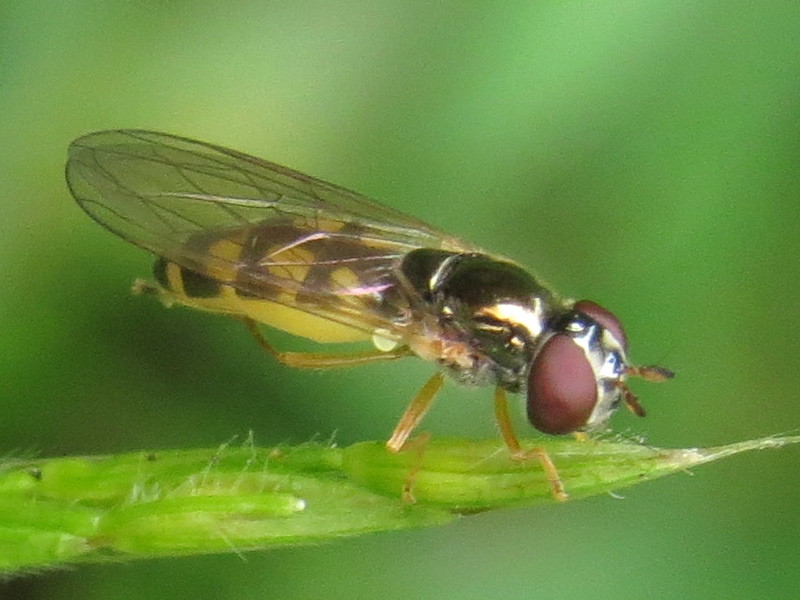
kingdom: Animalia
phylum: Arthropoda
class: Insecta
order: Diptera
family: Syrphidae
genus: Melanostoma
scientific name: Melanostoma mellina
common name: Hover fly
